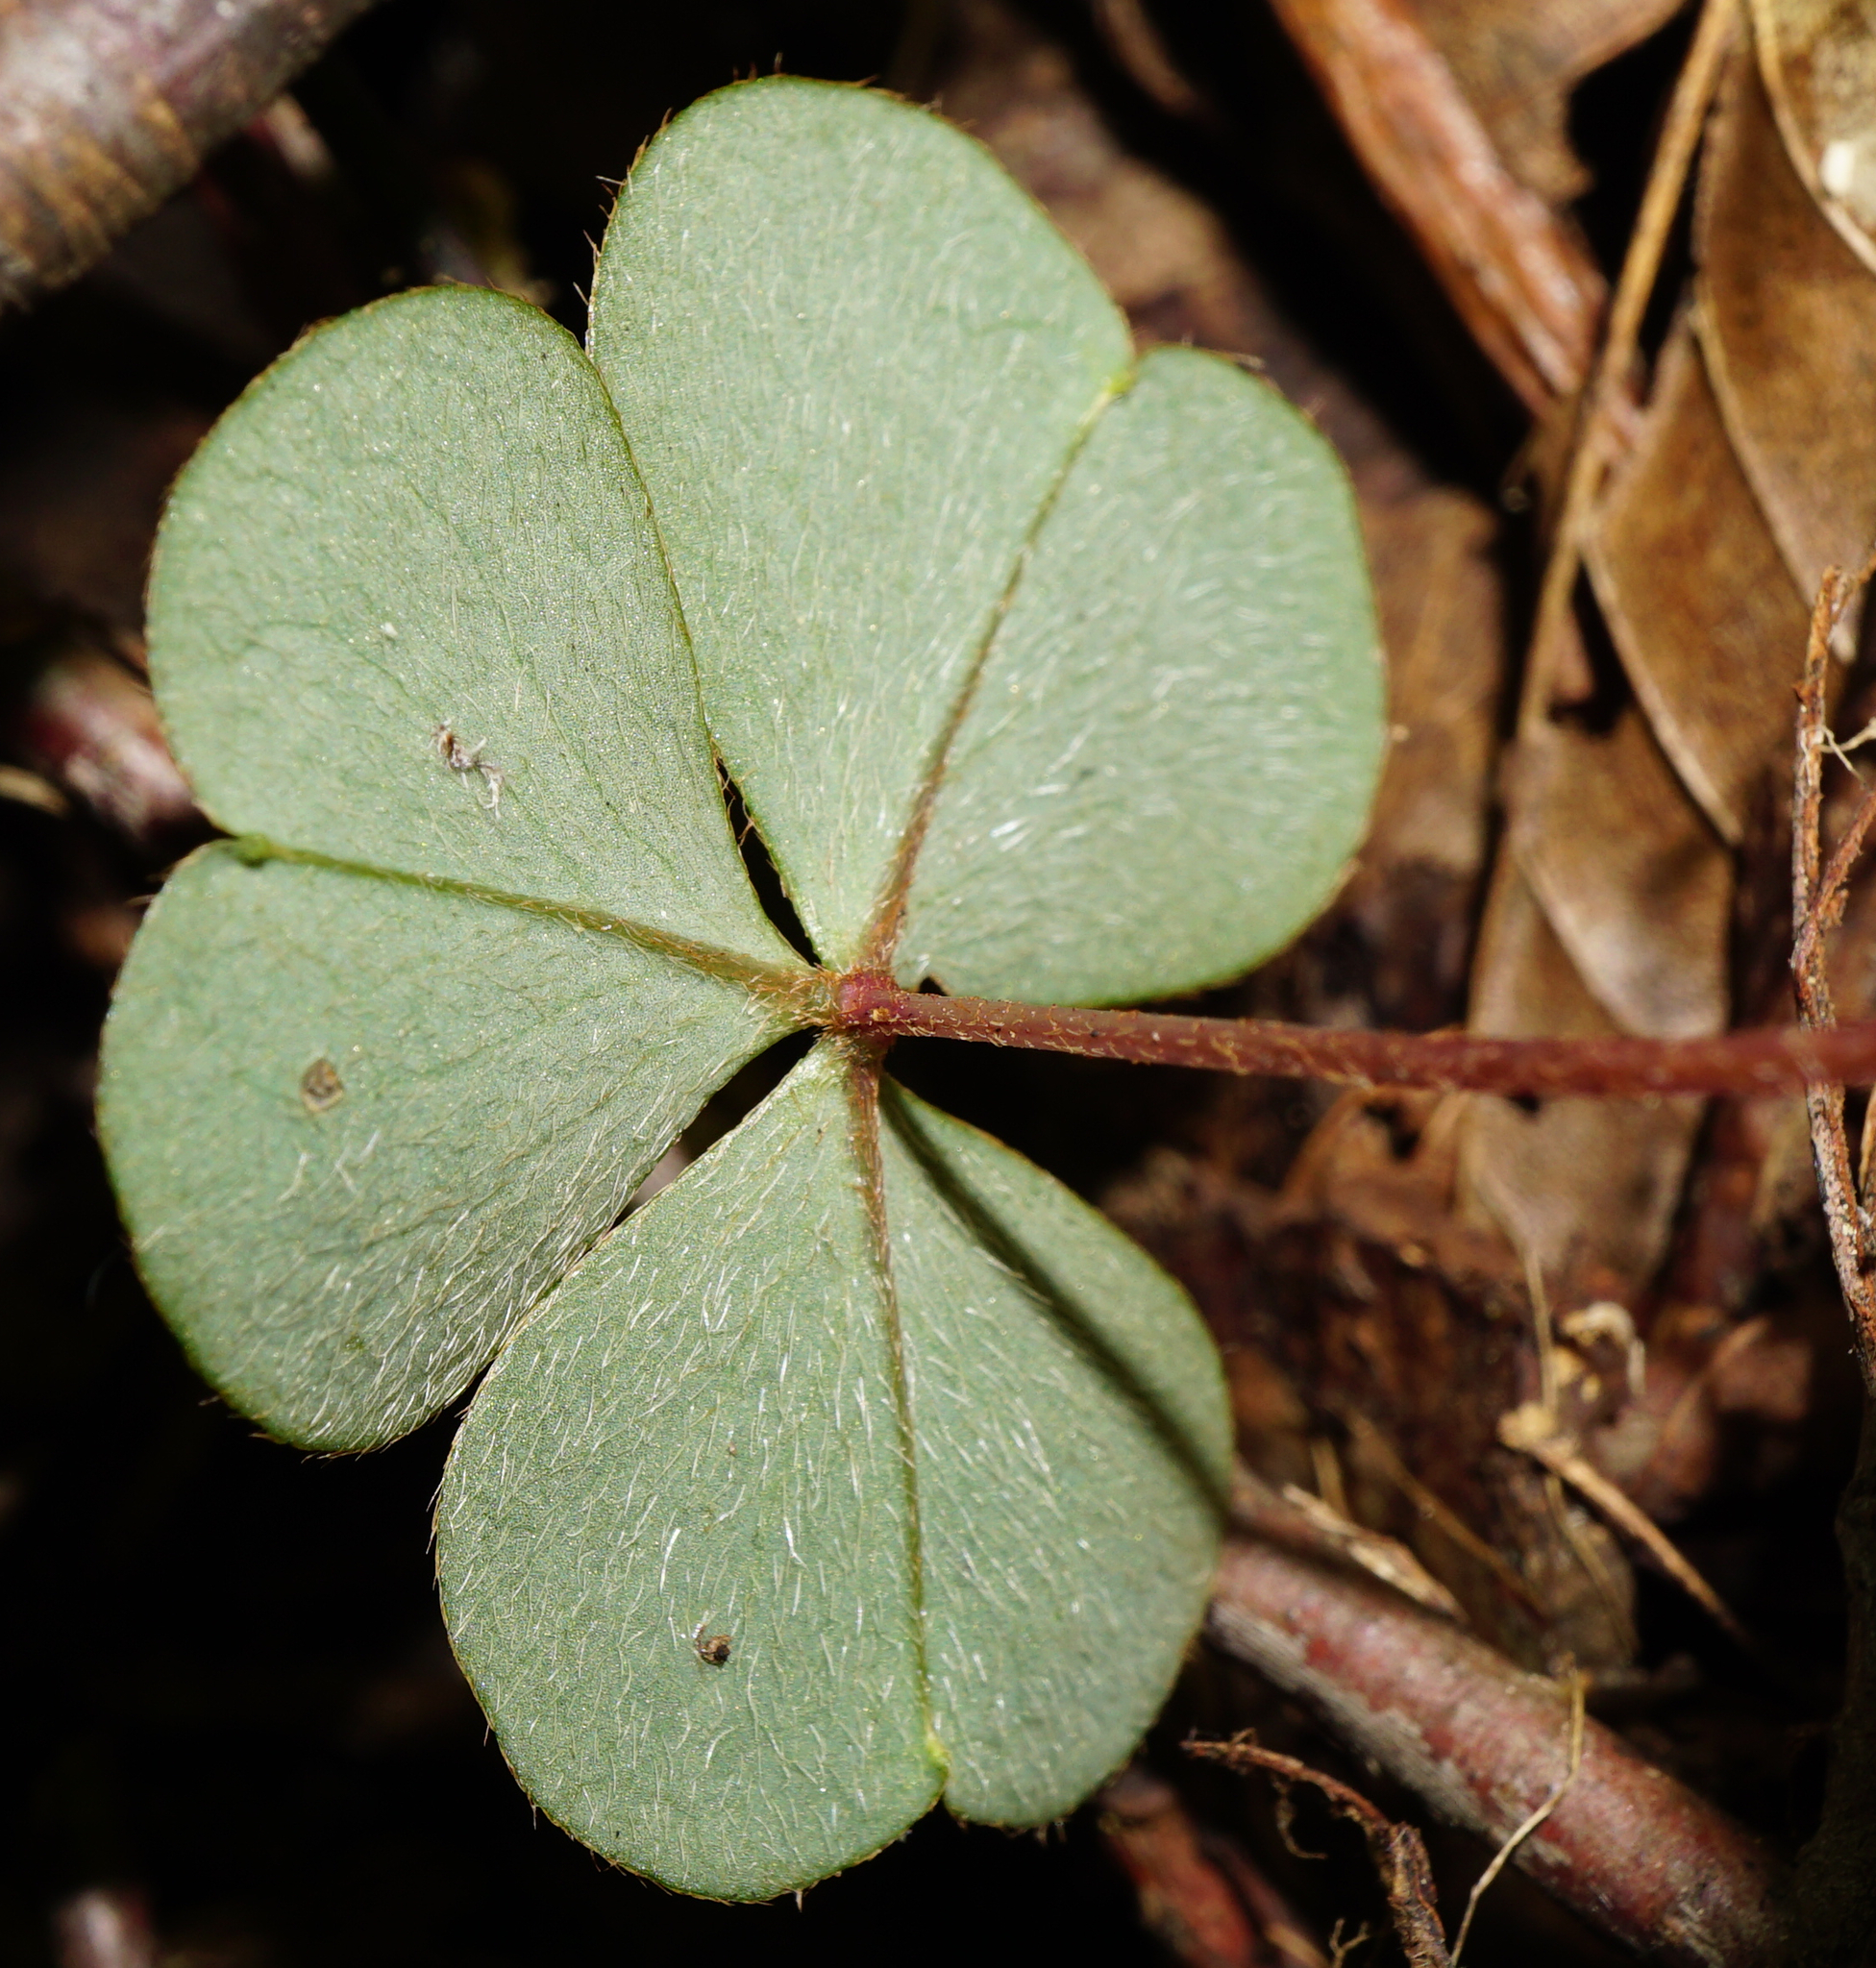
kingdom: Plantae
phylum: Tracheophyta
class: Magnoliopsida
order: Oxalidales
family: Oxalidaceae
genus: Oxalis
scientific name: Oxalis acetosella
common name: Wood-sorrel
